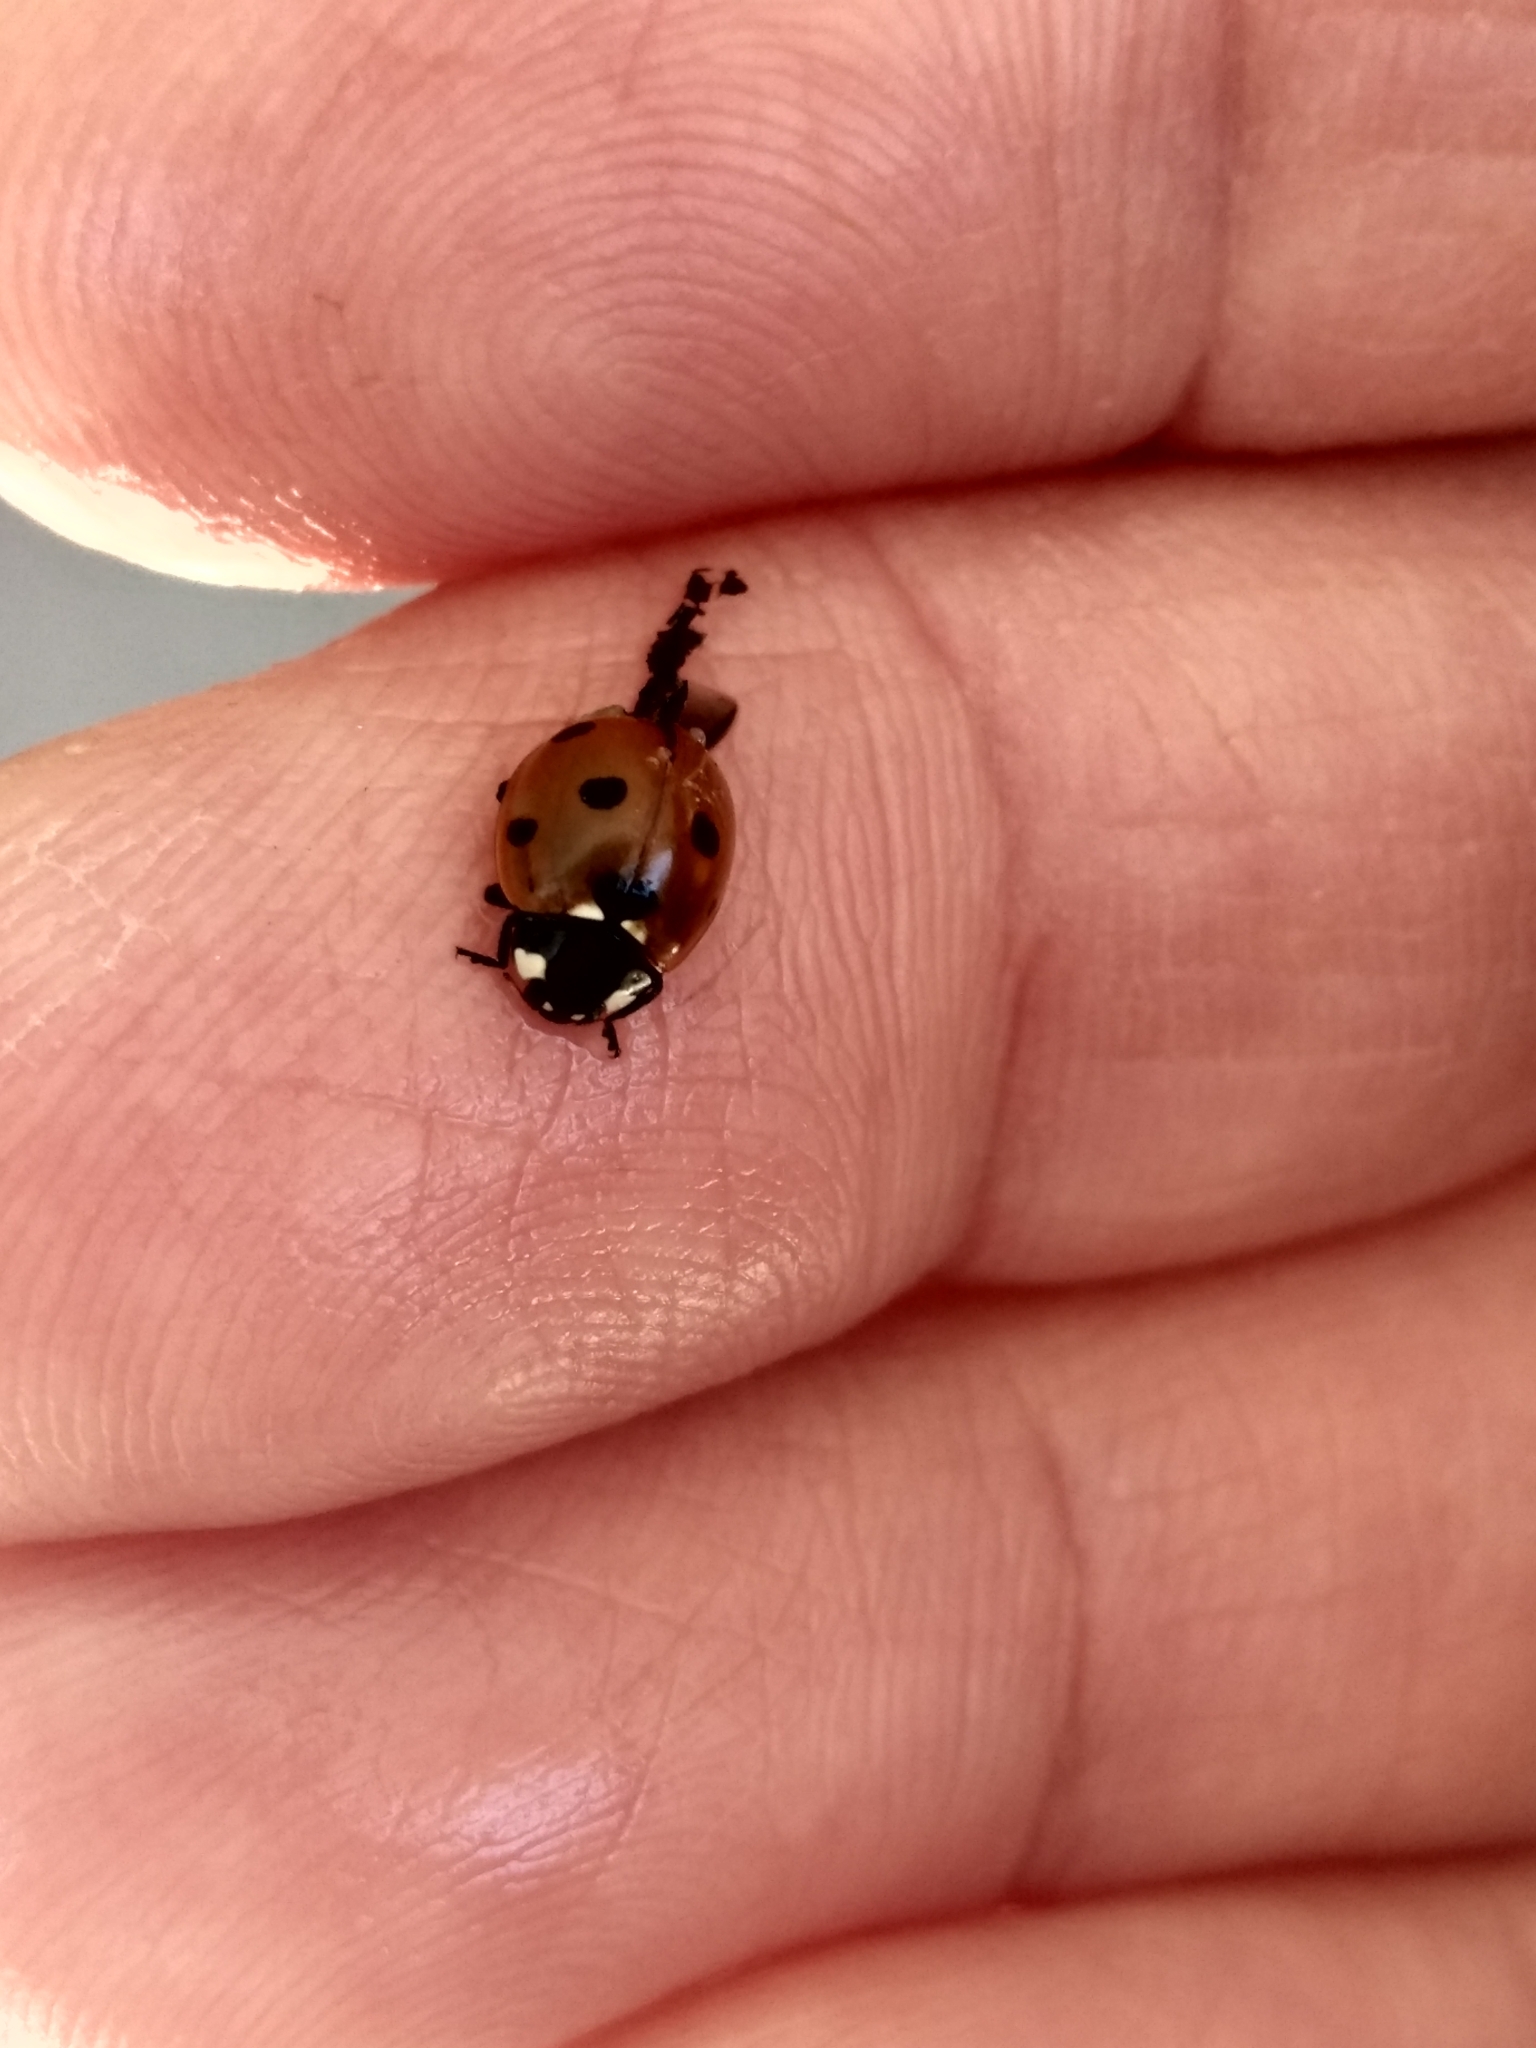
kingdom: Animalia
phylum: Arthropoda
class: Insecta
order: Coleoptera
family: Coccinellidae
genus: Coccinella
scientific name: Coccinella septempunctata
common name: Sevenspotted lady beetle
